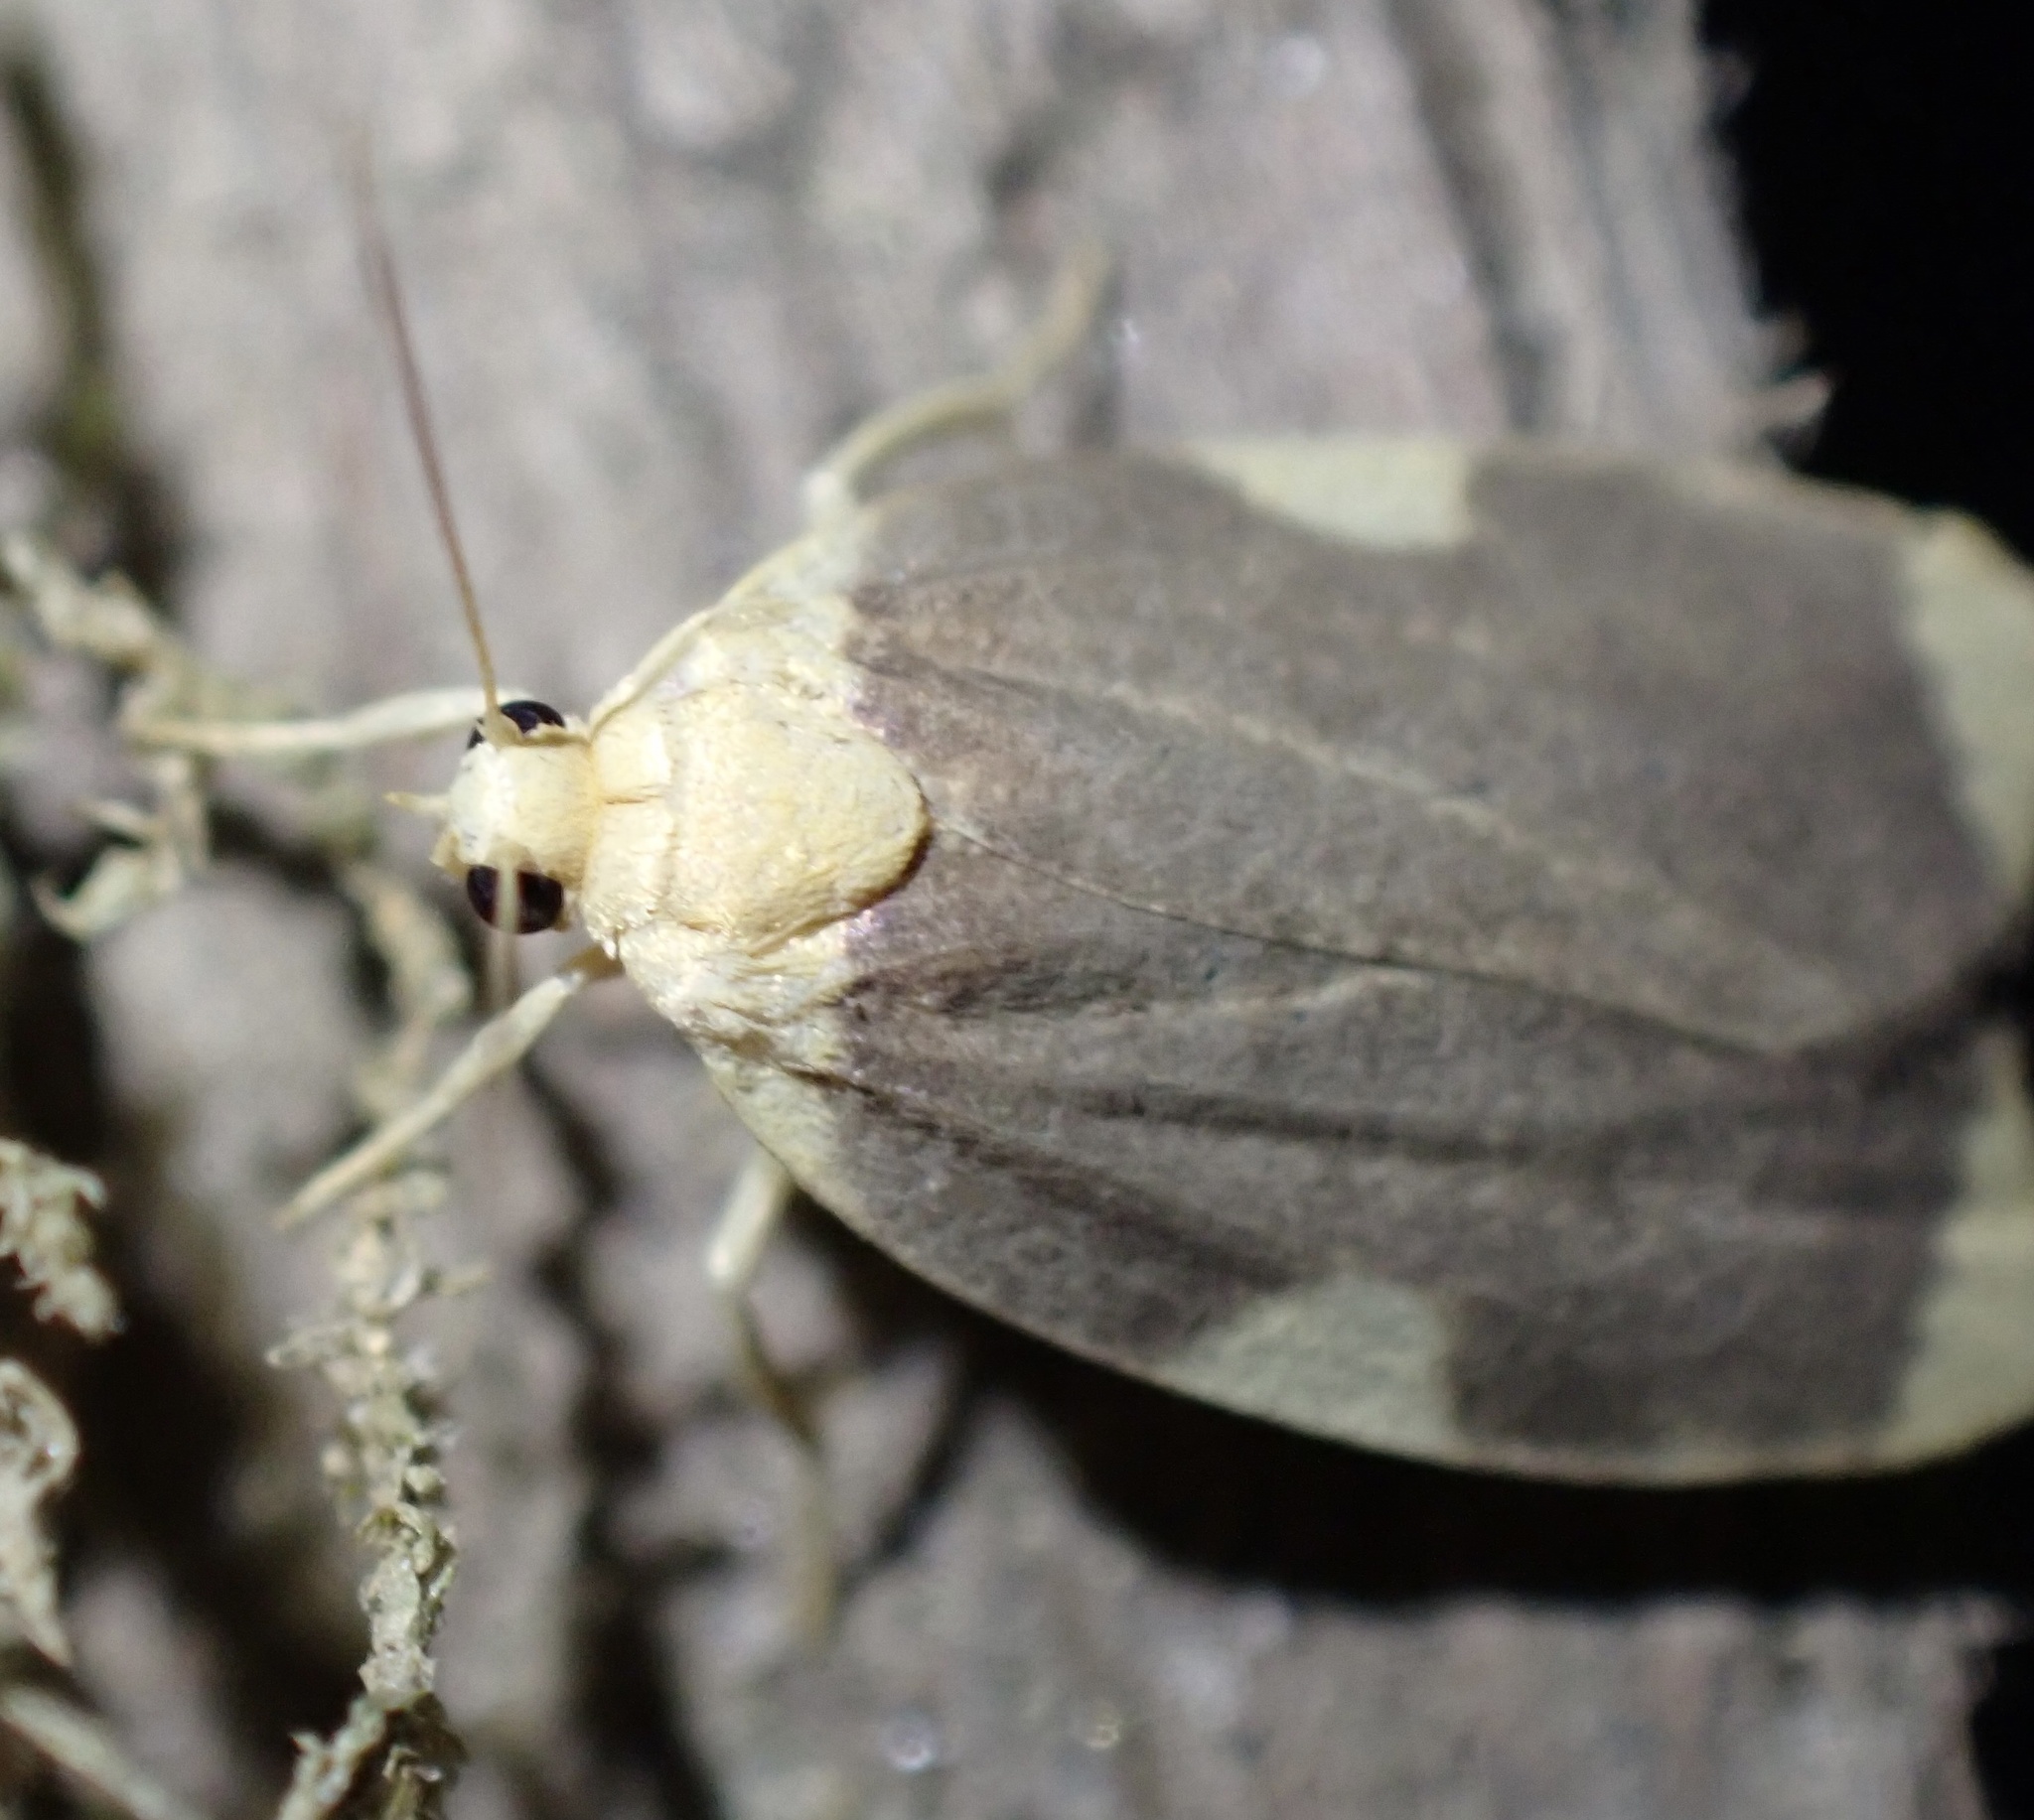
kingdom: Animalia
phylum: Arthropoda
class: Insecta
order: Lepidoptera
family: Erebidae
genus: Darantasia
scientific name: Darantasia apicata
